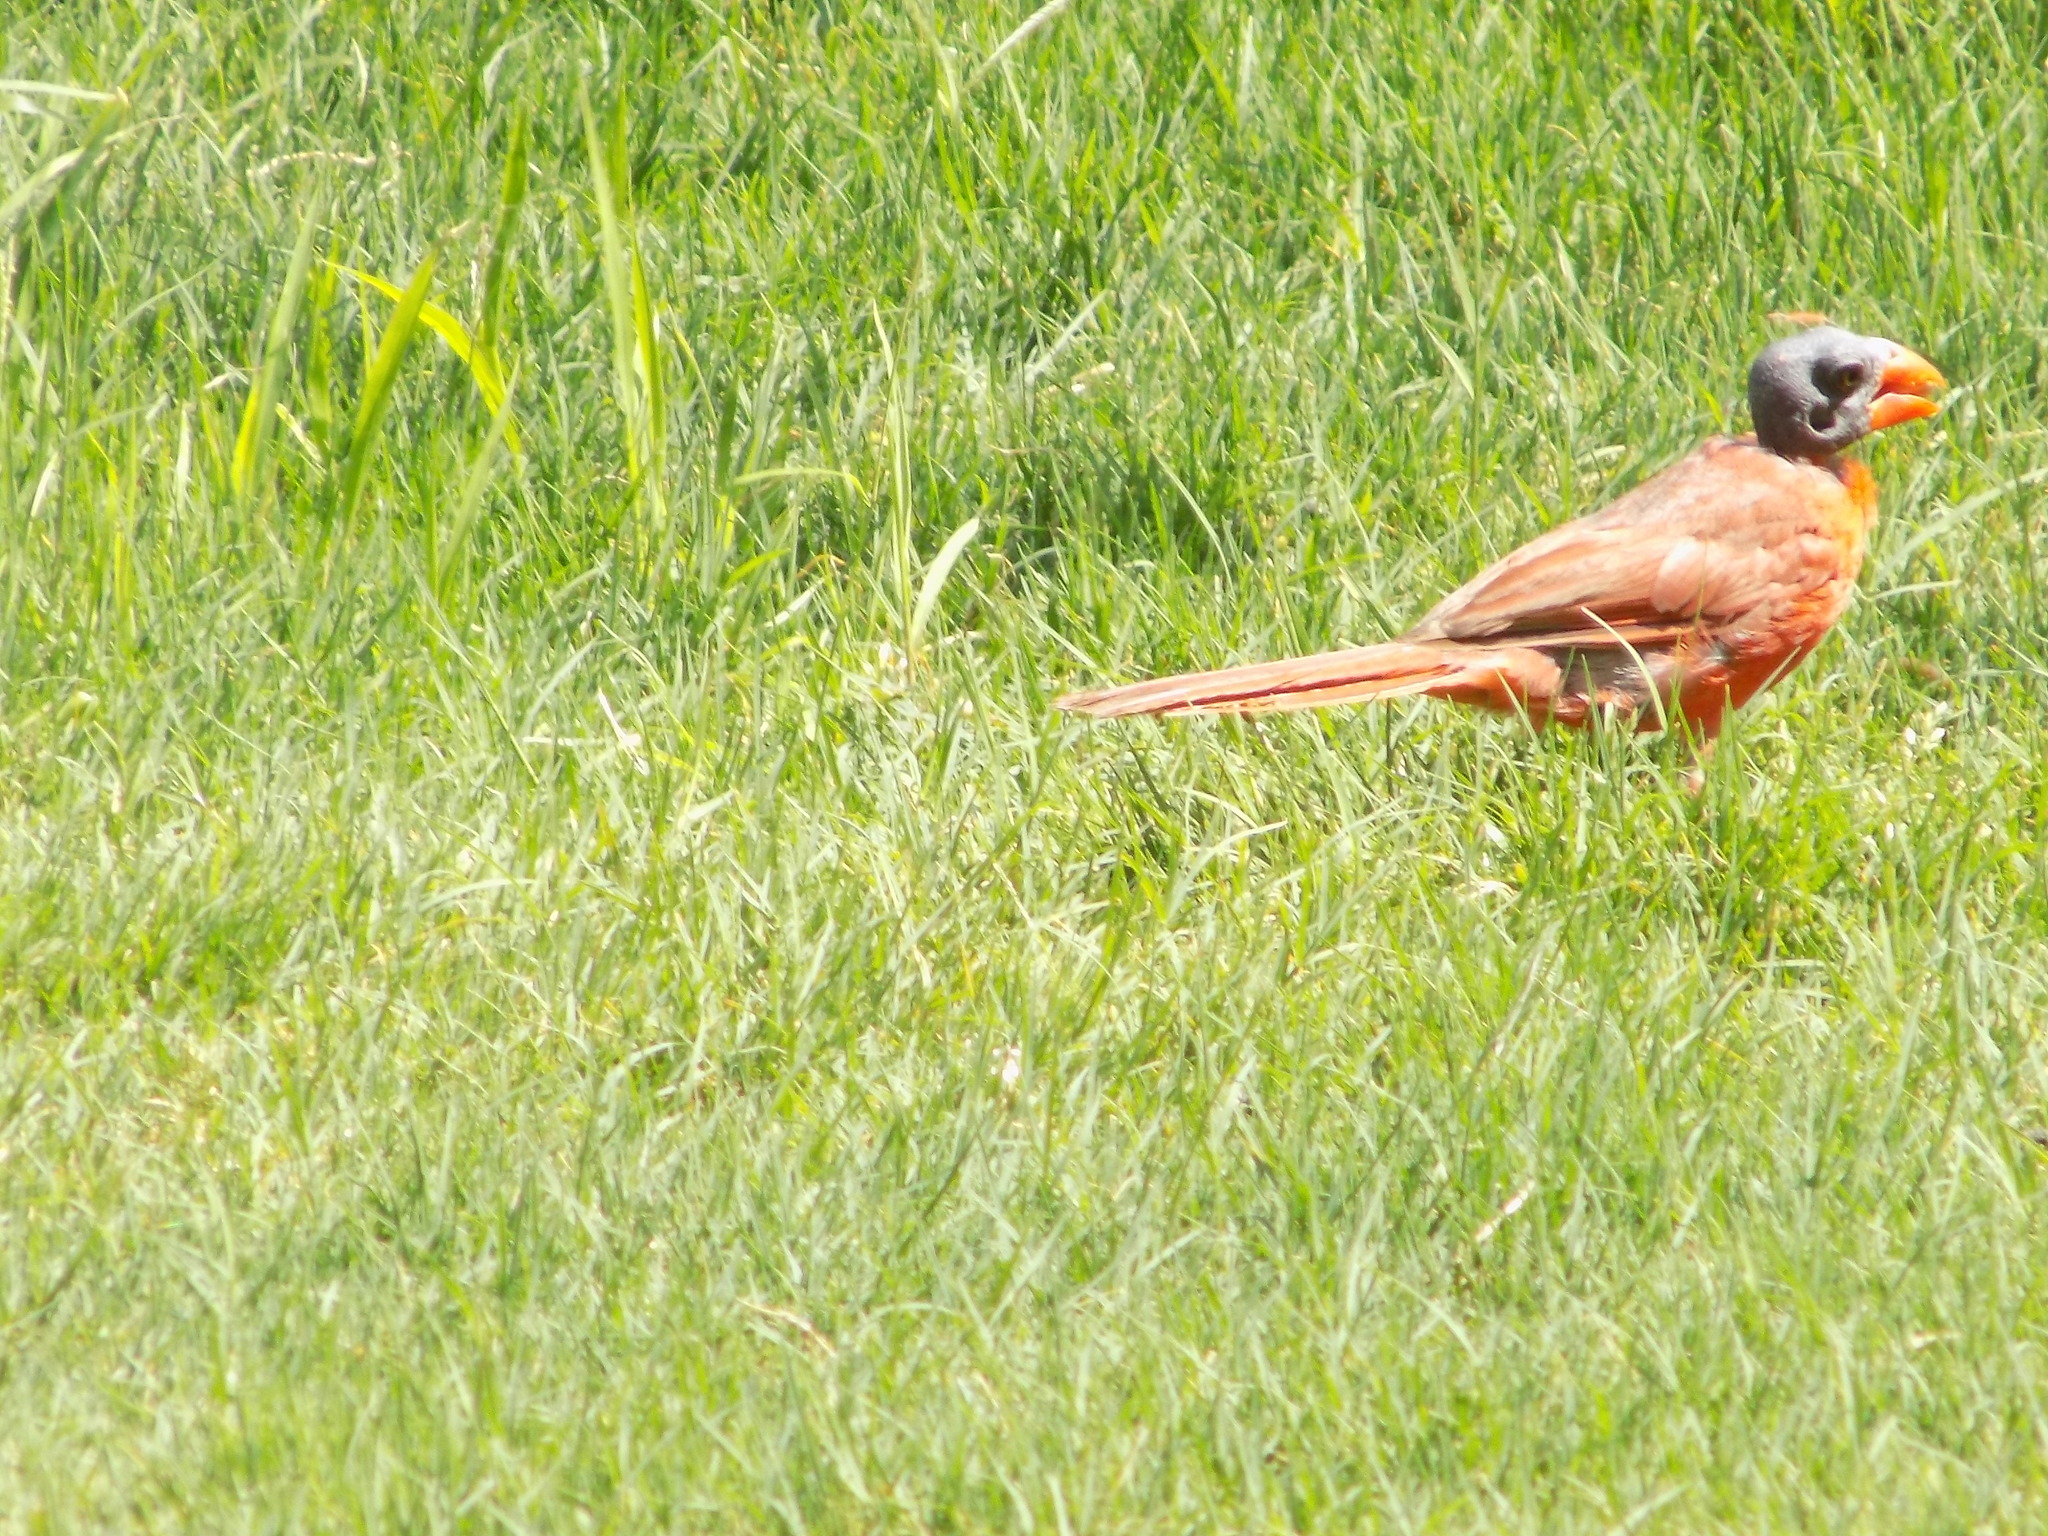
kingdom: Animalia
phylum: Chordata
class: Aves
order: Passeriformes
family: Cardinalidae
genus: Cardinalis
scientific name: Cardinalis cardinalis
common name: Northern cardinal
